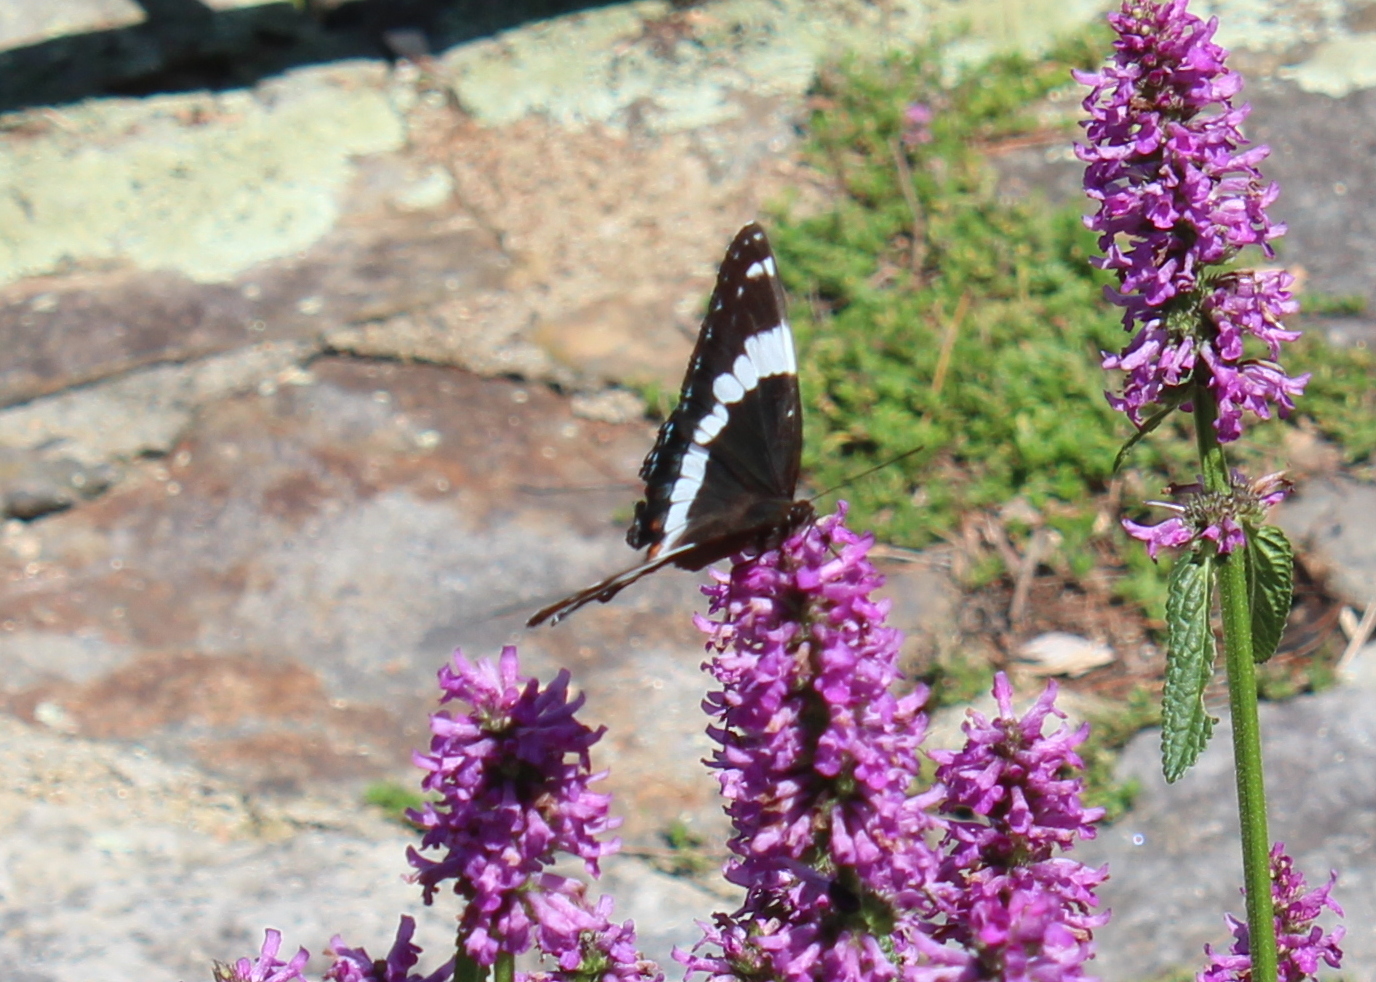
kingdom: Animalia
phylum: Arthropoda
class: Insecta
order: Lepidoptera
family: Nymphalidae
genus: Limenitis
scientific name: Limenitis arthemis
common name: Red-spotted admiral
